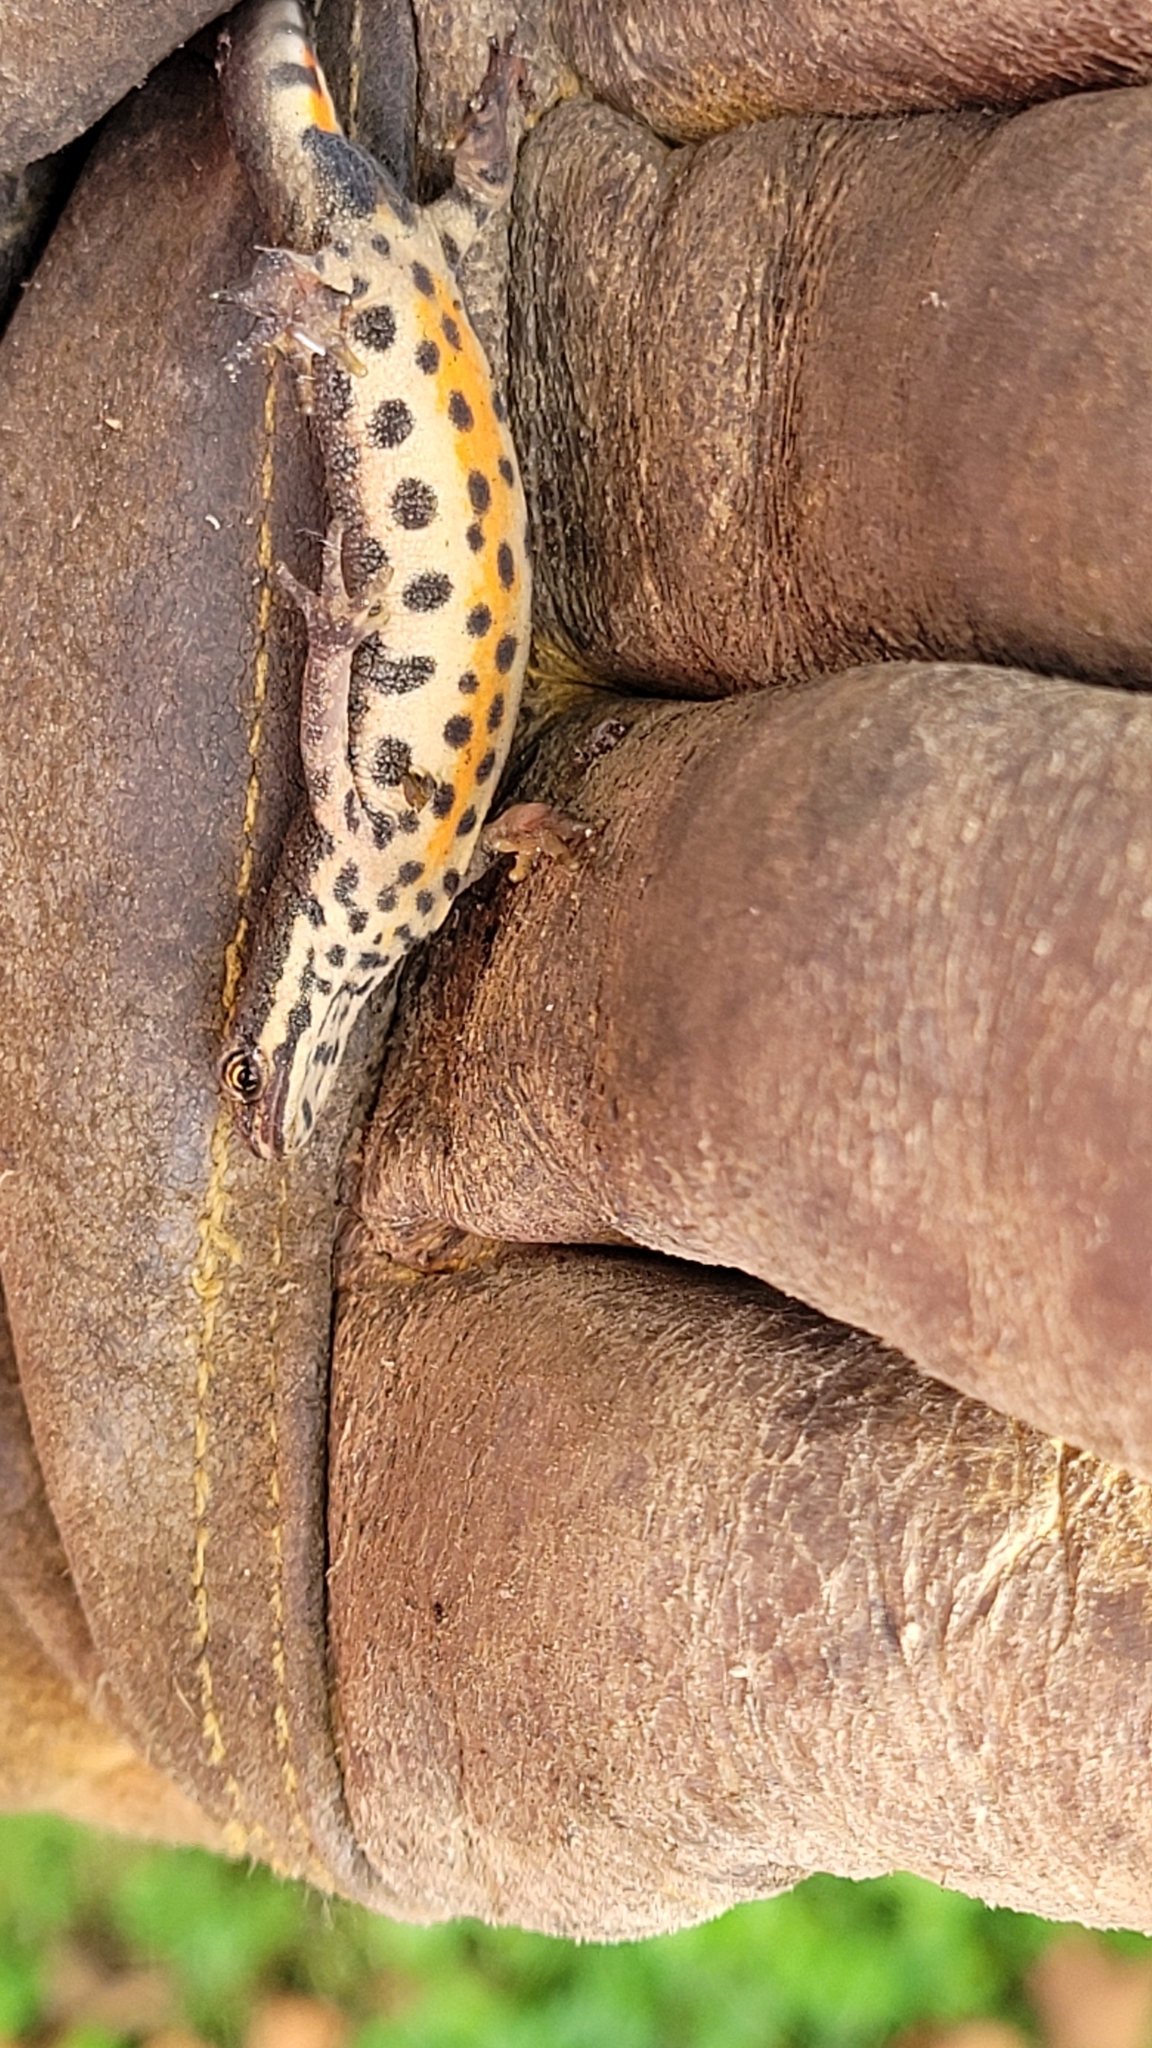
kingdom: Animalia
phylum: Chordata
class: Amphibia
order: Caudata
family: Salamandridae
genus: Lissotriton
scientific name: Lissotriton vulgaris
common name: Smooth newt
